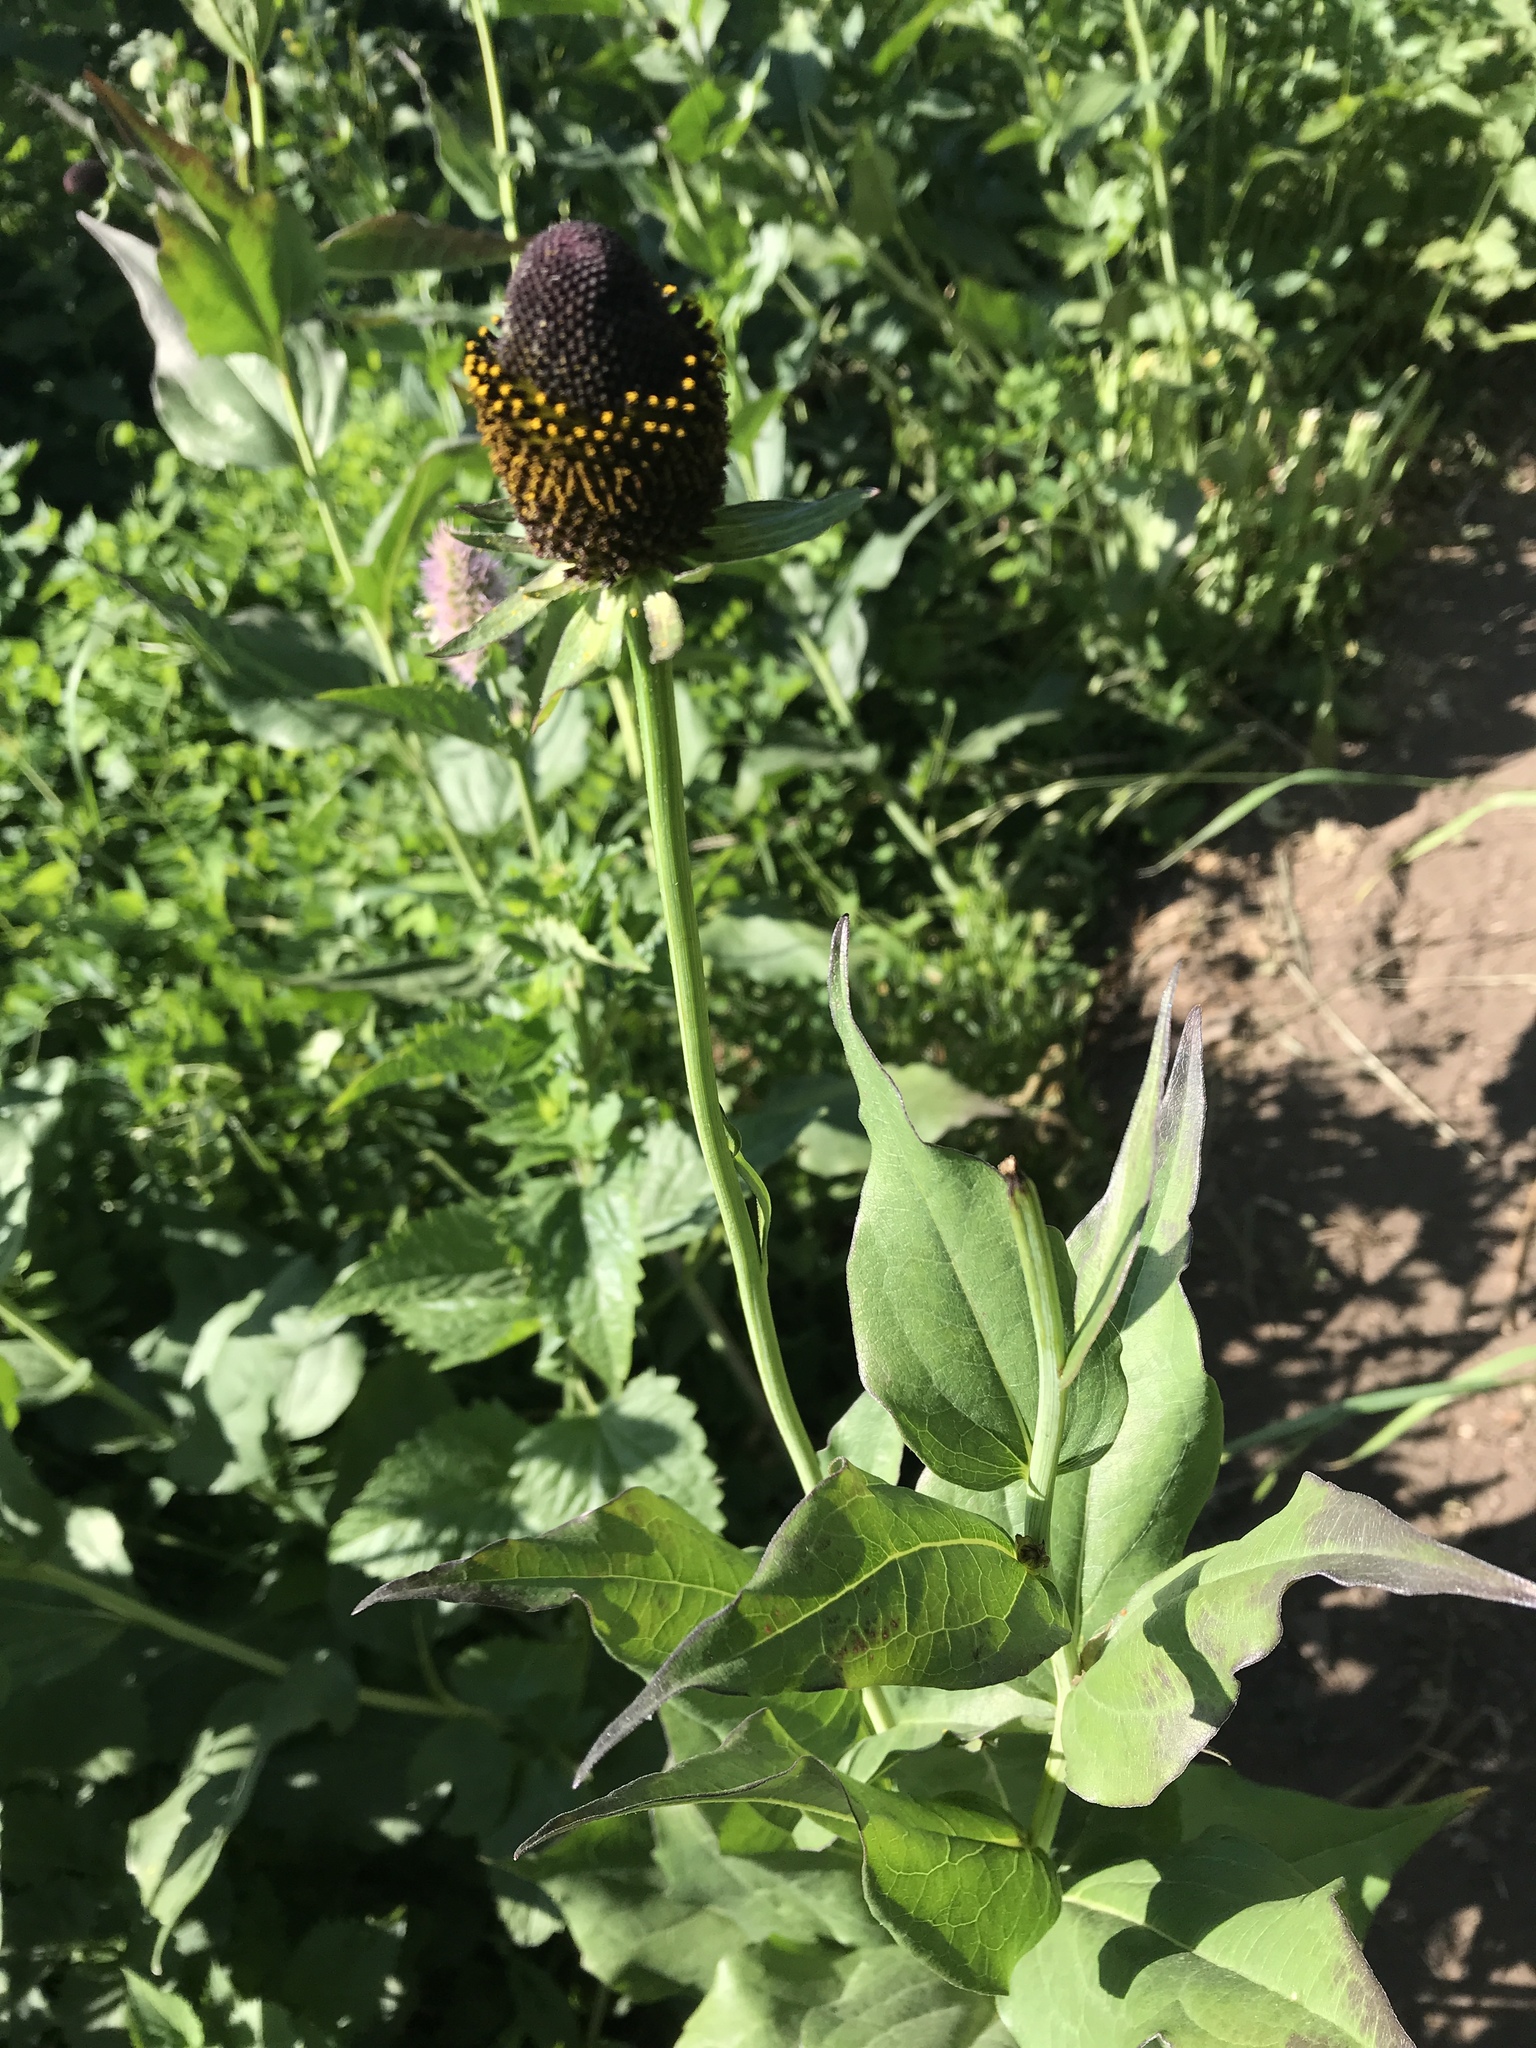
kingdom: Plantae
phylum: Tracheophyta
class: Magnoliopsida
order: Asterales
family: Asteraceae
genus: Rudbeckia
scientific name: Rudbeckia occidentalis
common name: Western coneflower
